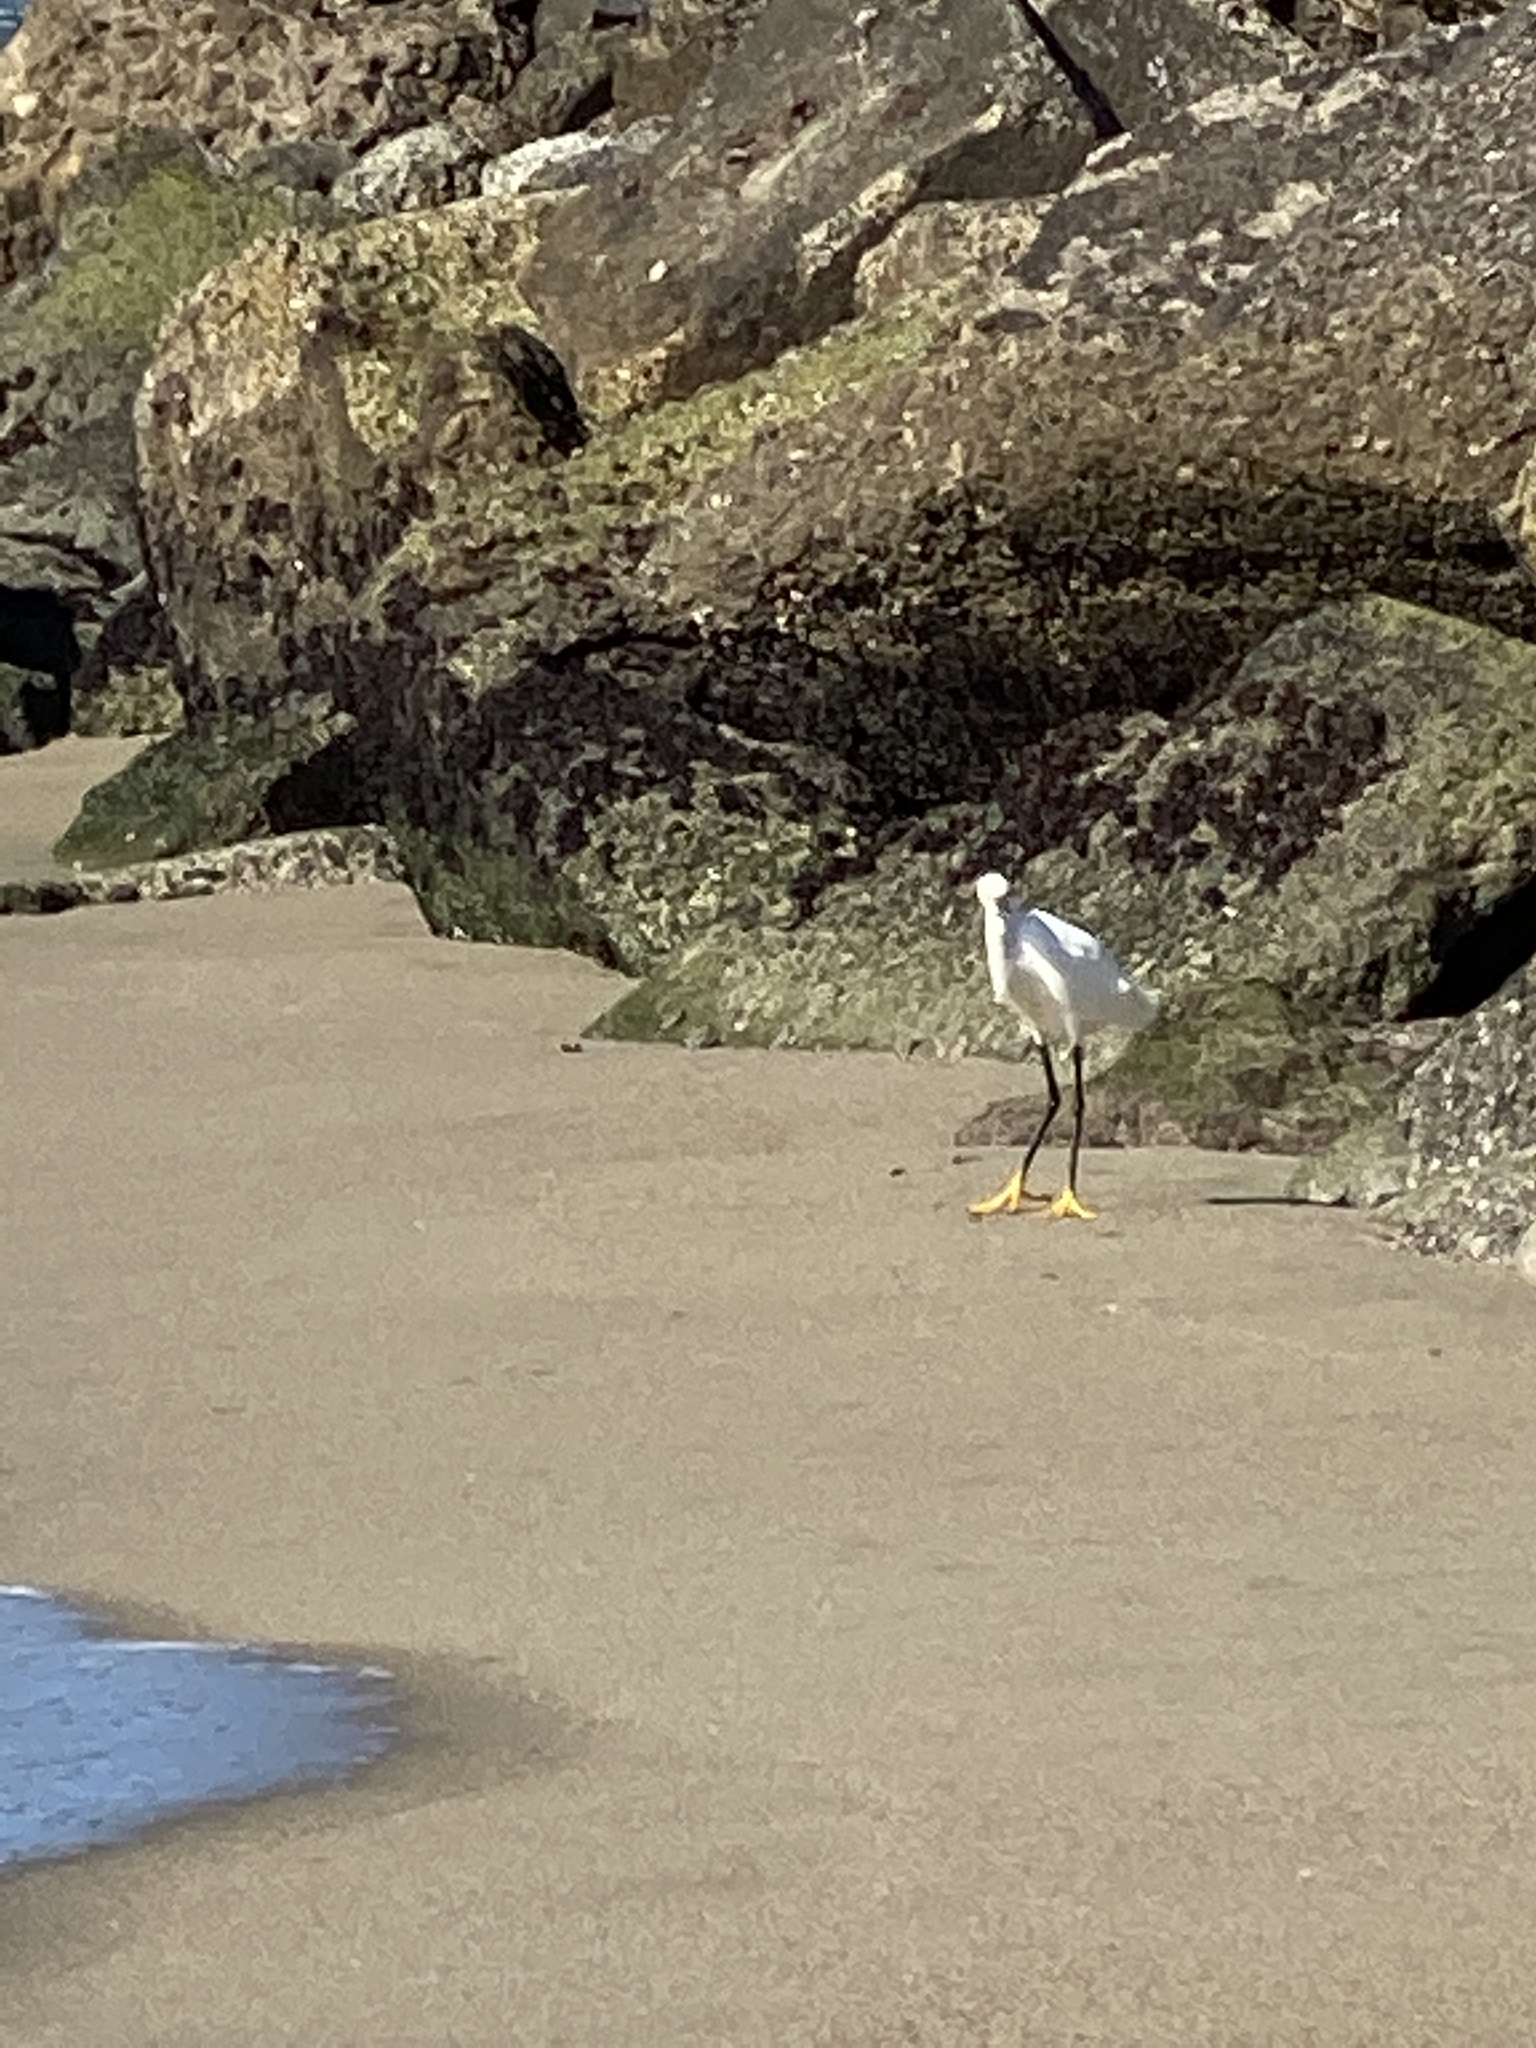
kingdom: Animalia
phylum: Chordata
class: Aves
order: Pelecaniformes
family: Ardeidae
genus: Egretta
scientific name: Egretta thula
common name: Snowy egret
